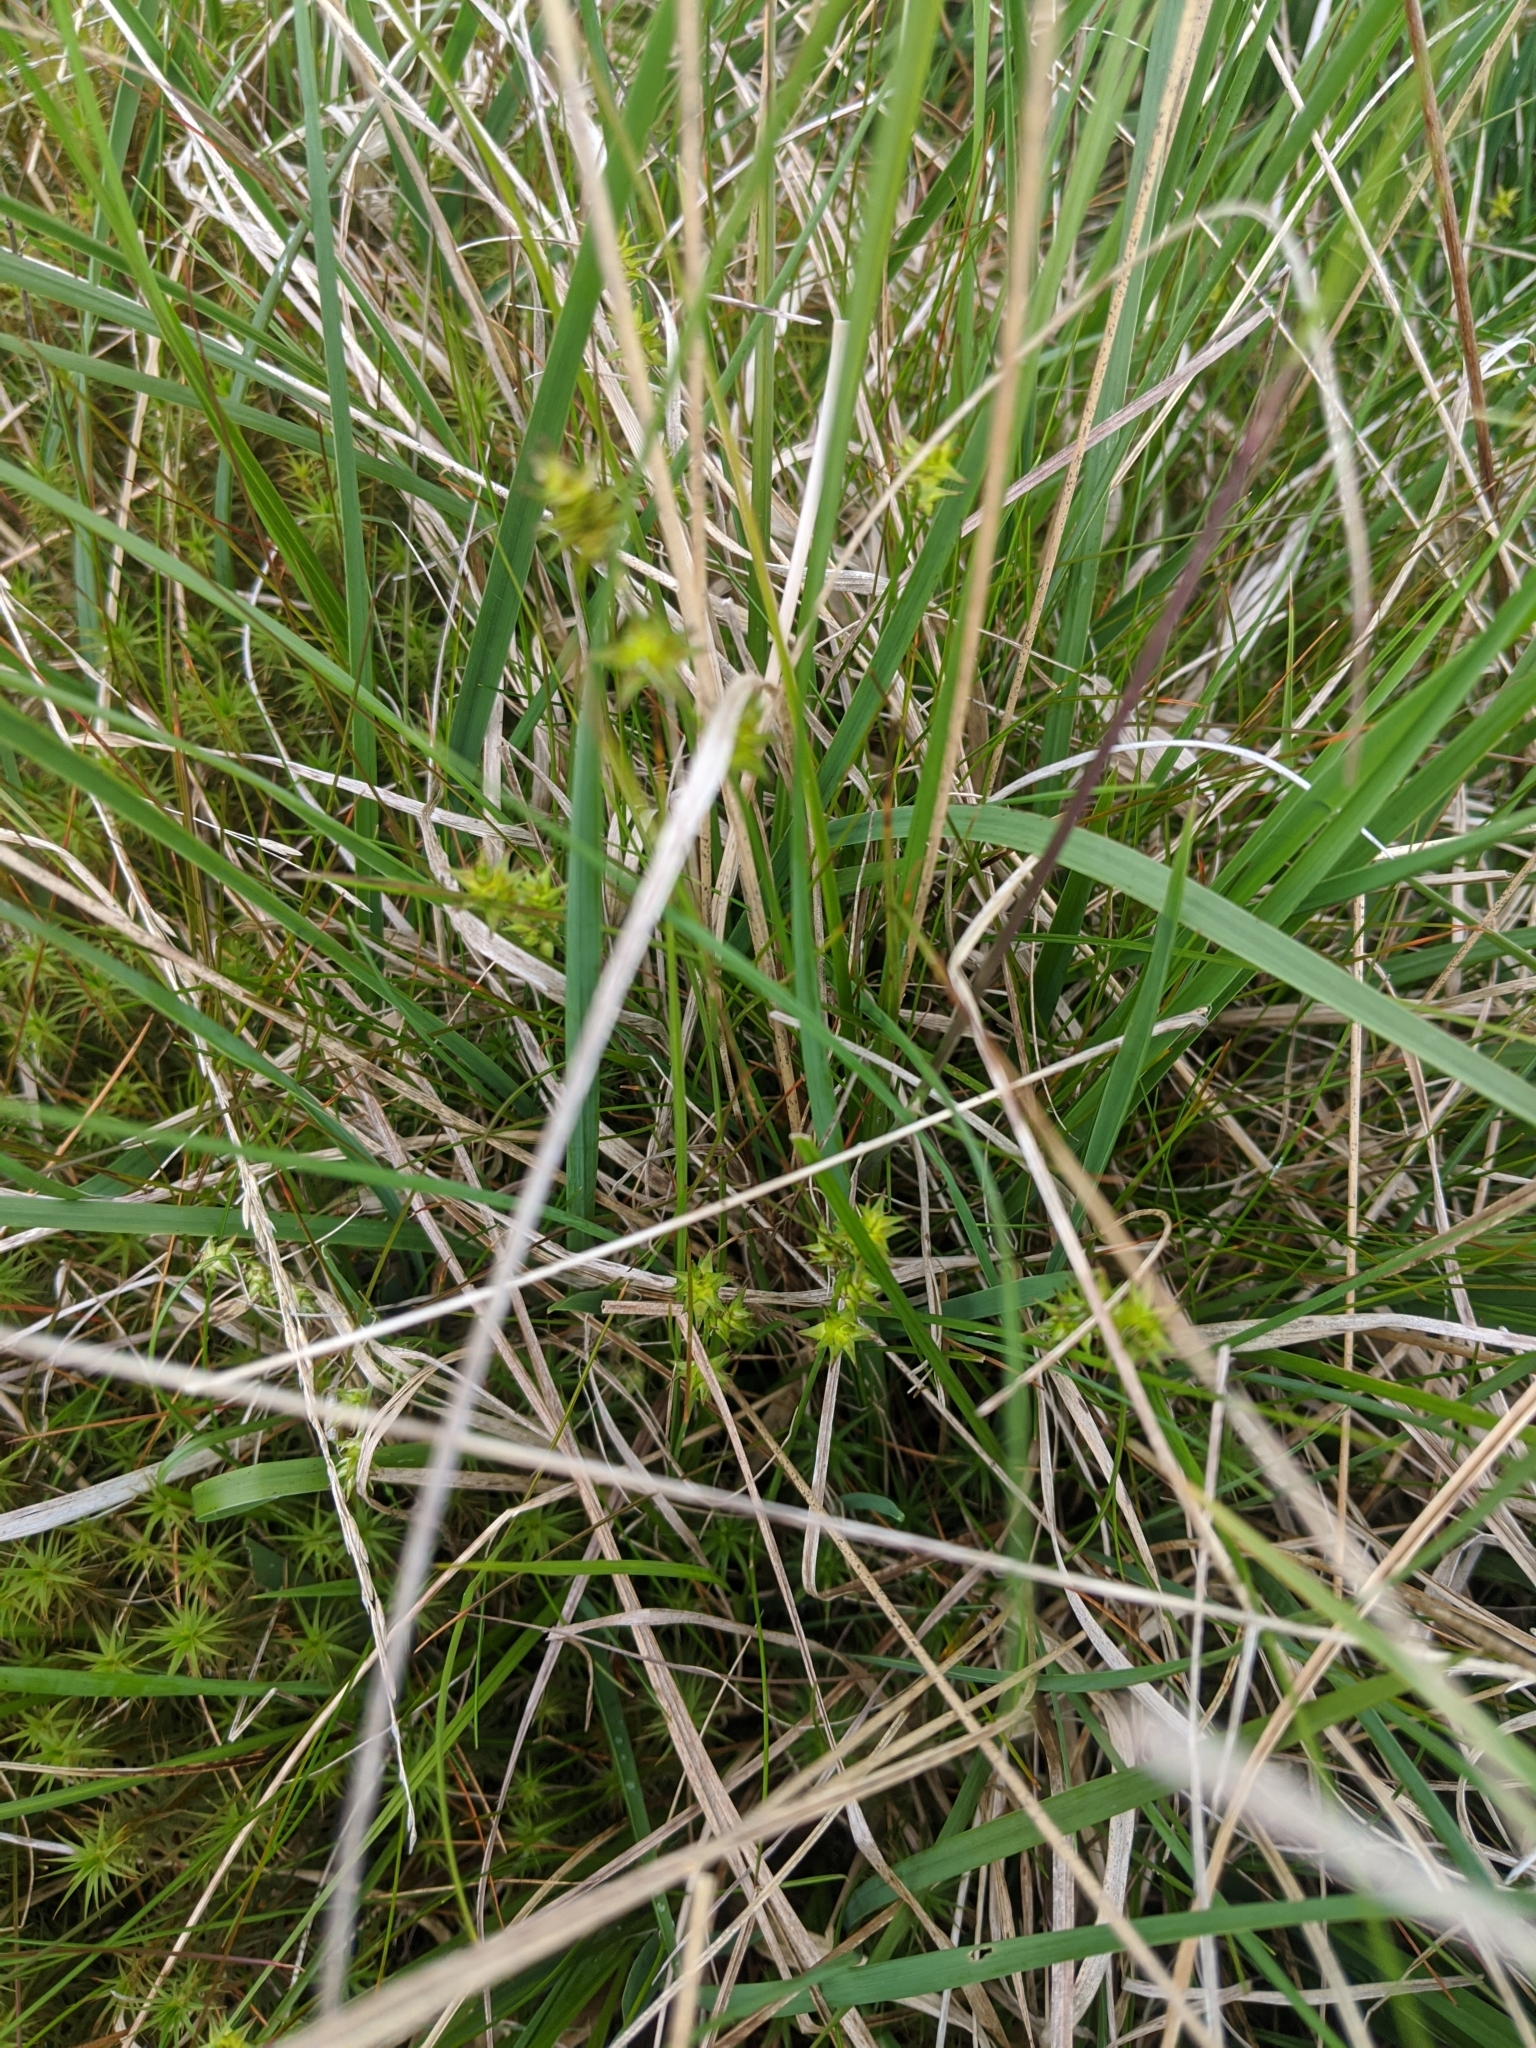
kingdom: Plantae
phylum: Tracheophyta
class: Liliopsida
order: Poales
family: Cyperaceae
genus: Carex
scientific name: Carex echinata
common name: Star sedge
